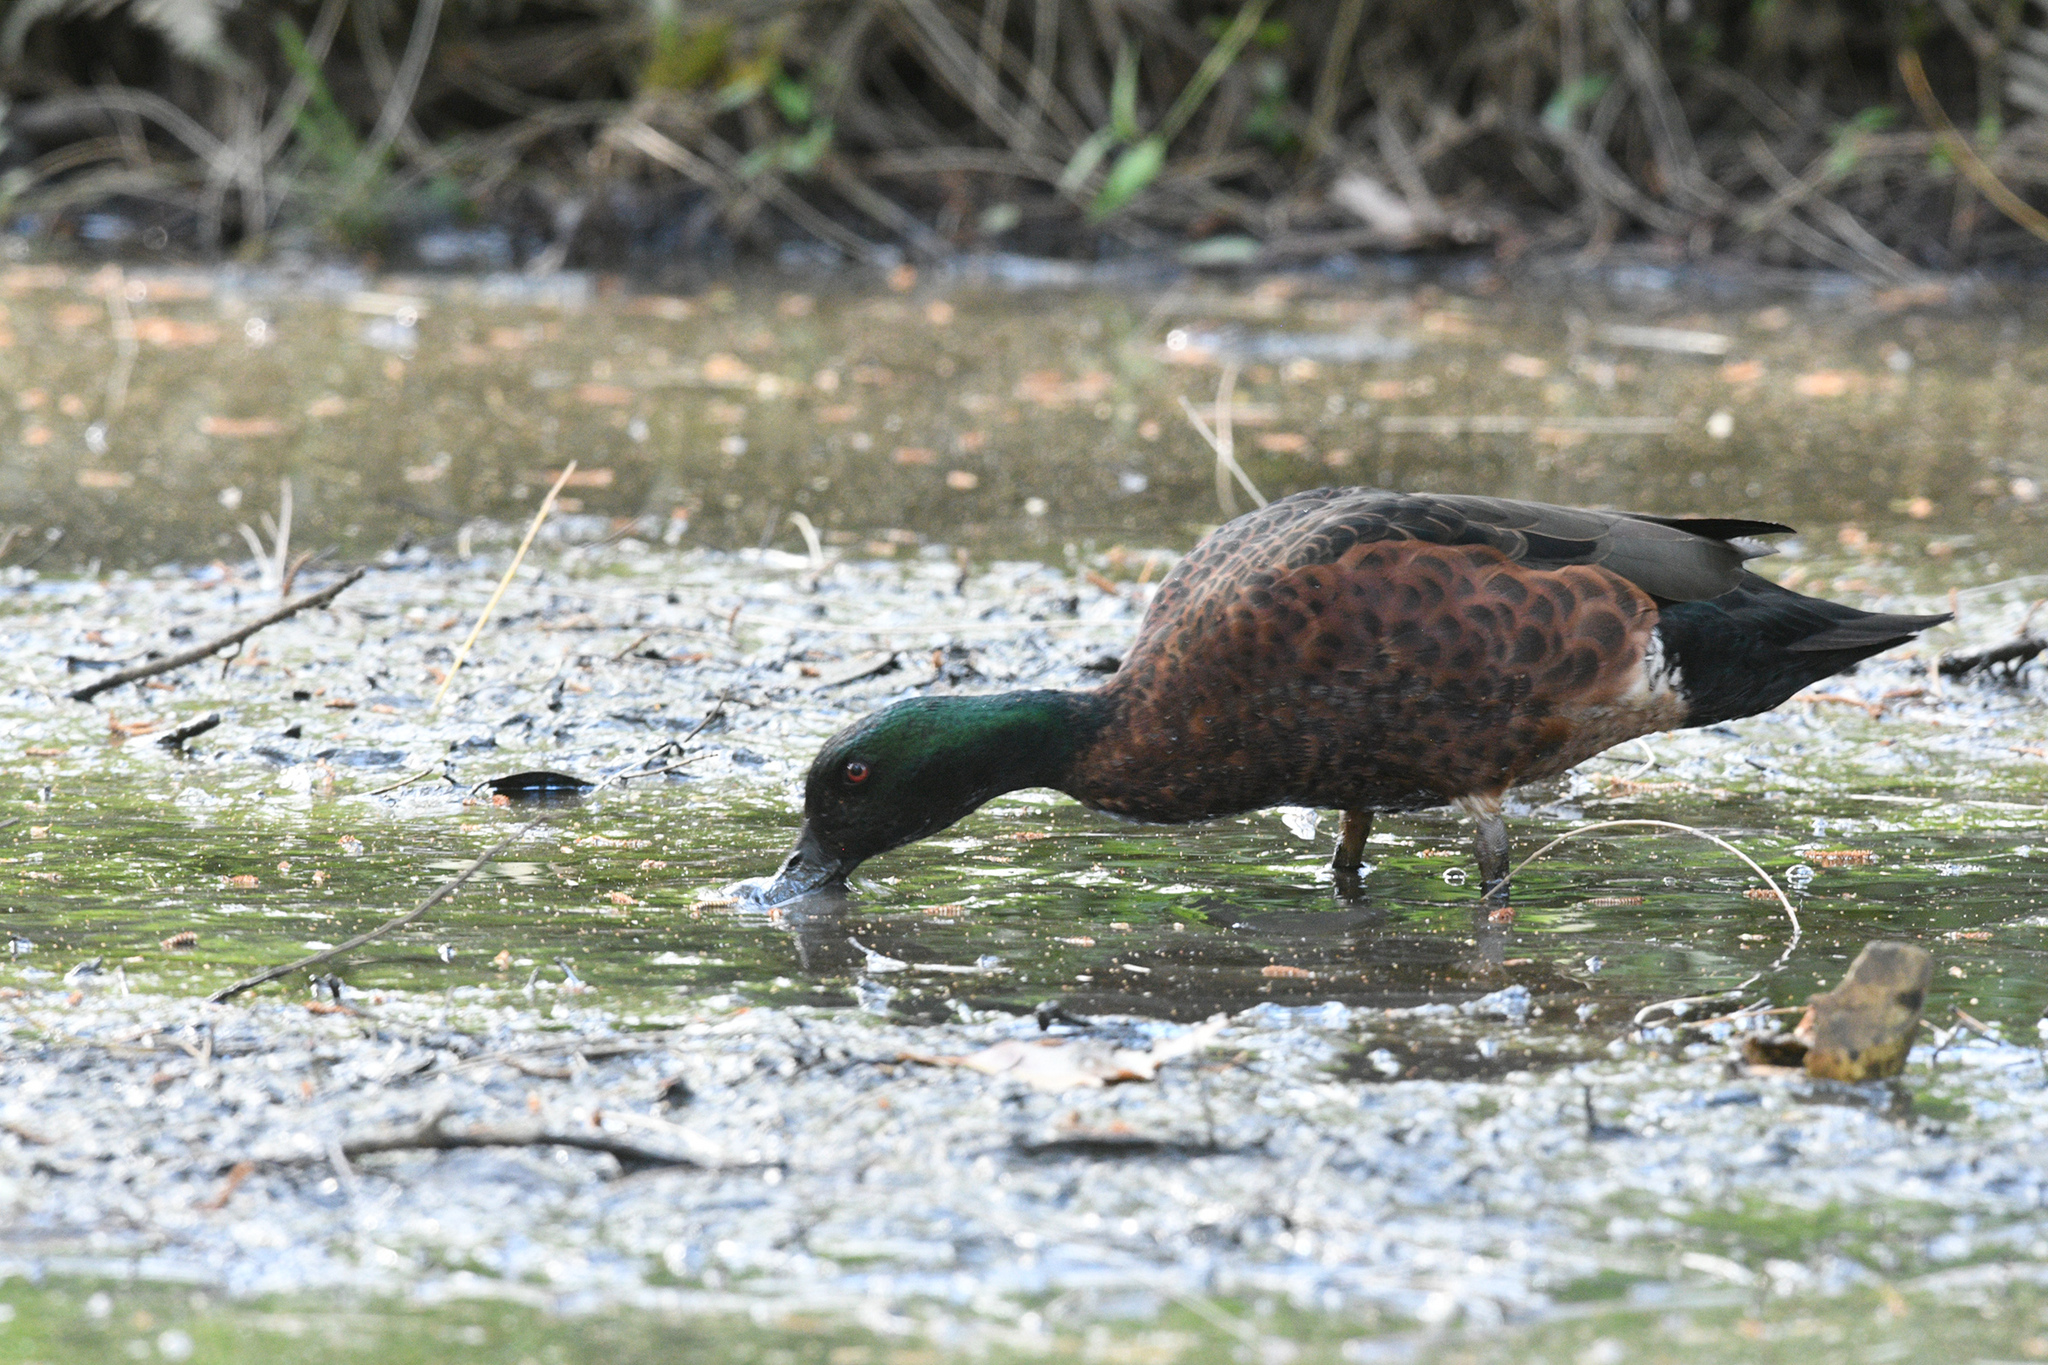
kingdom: Animalia
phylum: Chordata
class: Aves
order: Anseriformes
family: Anatidae
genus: Anas
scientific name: Anas castanea
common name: Chestnut teal
